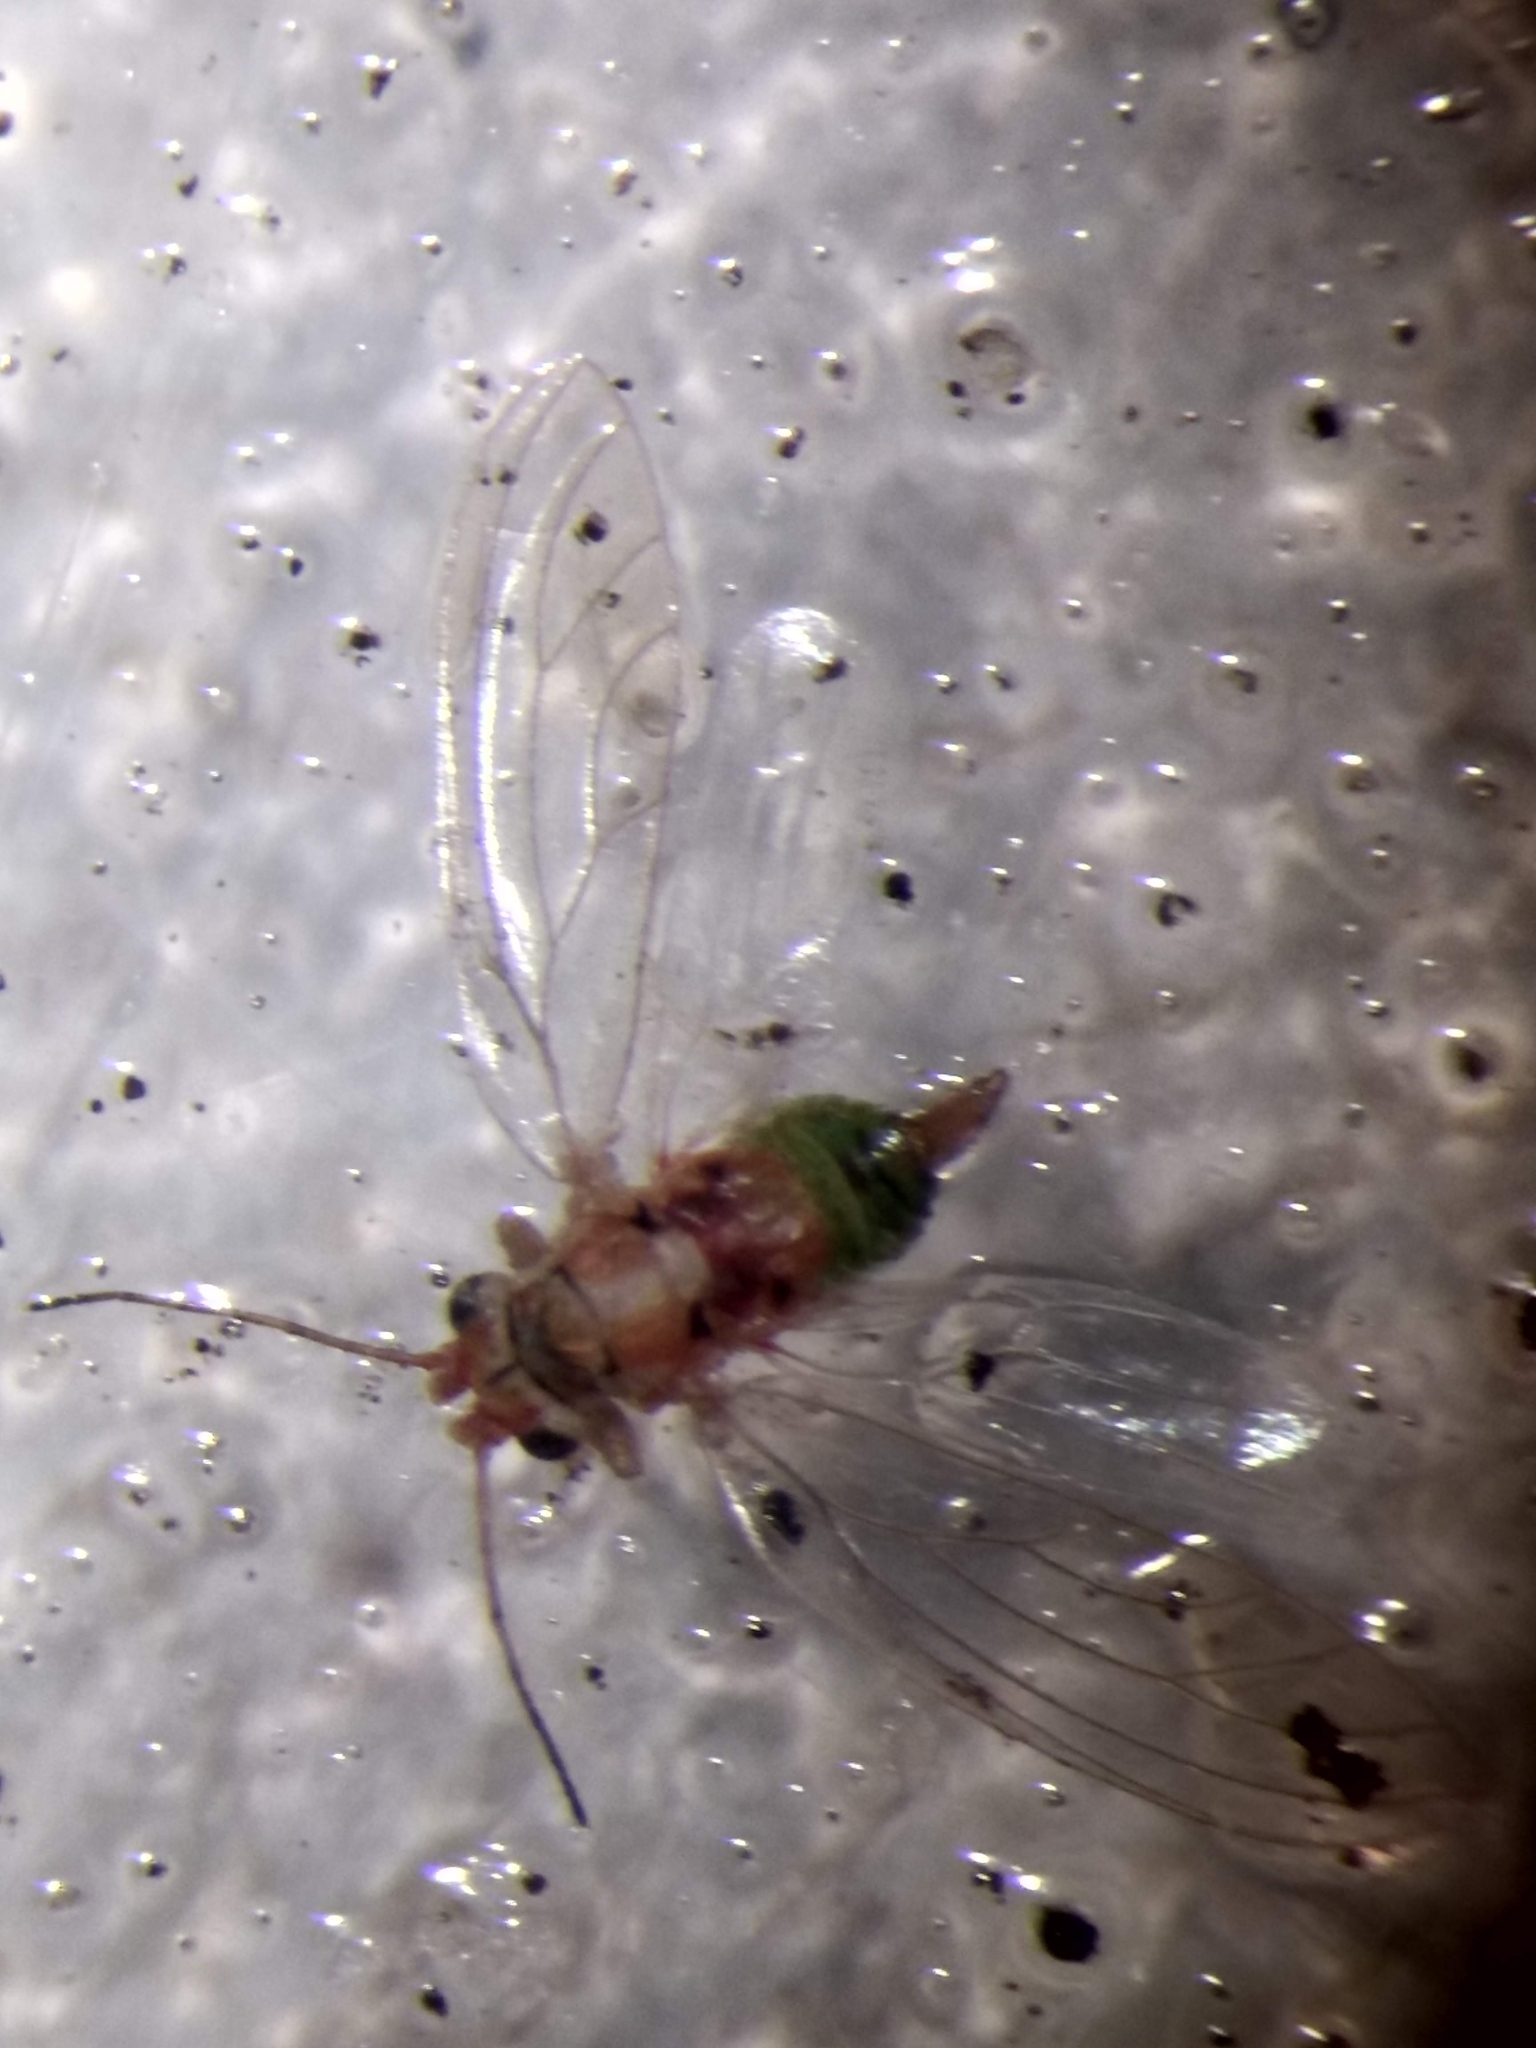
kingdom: Animalia
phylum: Arthropoda
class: Insecta
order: Hemiptera
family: Aphalaridae
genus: Glycaspis
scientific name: Glycaspis brimblecombei
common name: Red gum lerp psyllid
